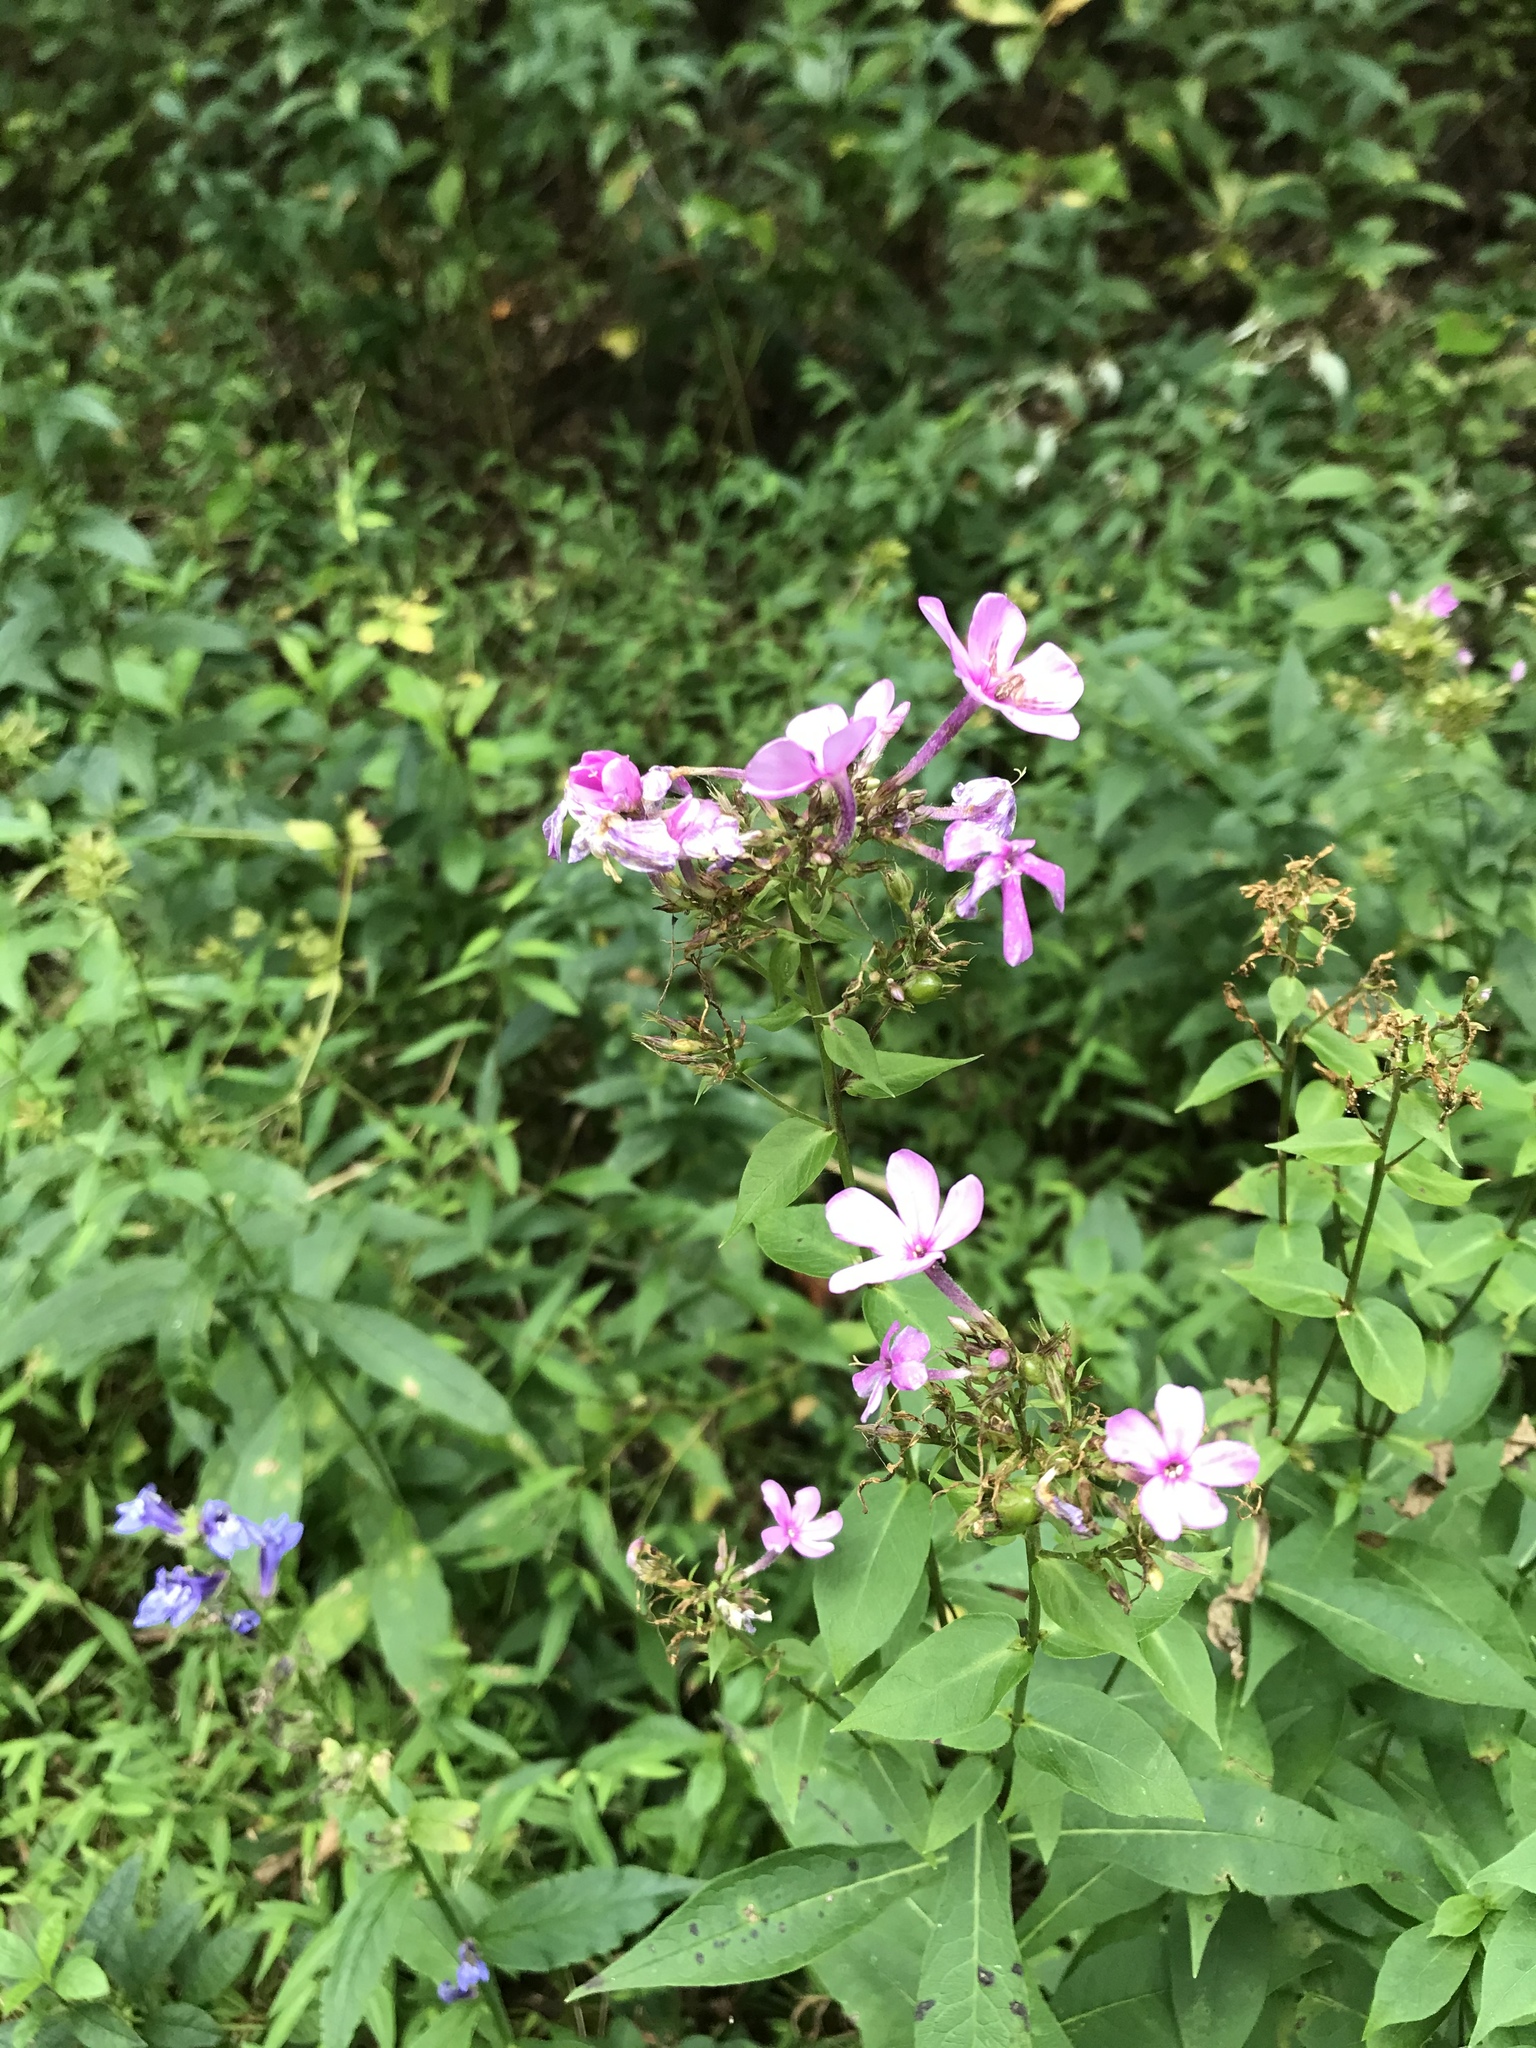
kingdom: Plantae
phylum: Tracheophyta
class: Magnoliopsida
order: Ericales
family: Polemoniaceae
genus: Phlox
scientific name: Phlox paniculata
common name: Fall phlox
